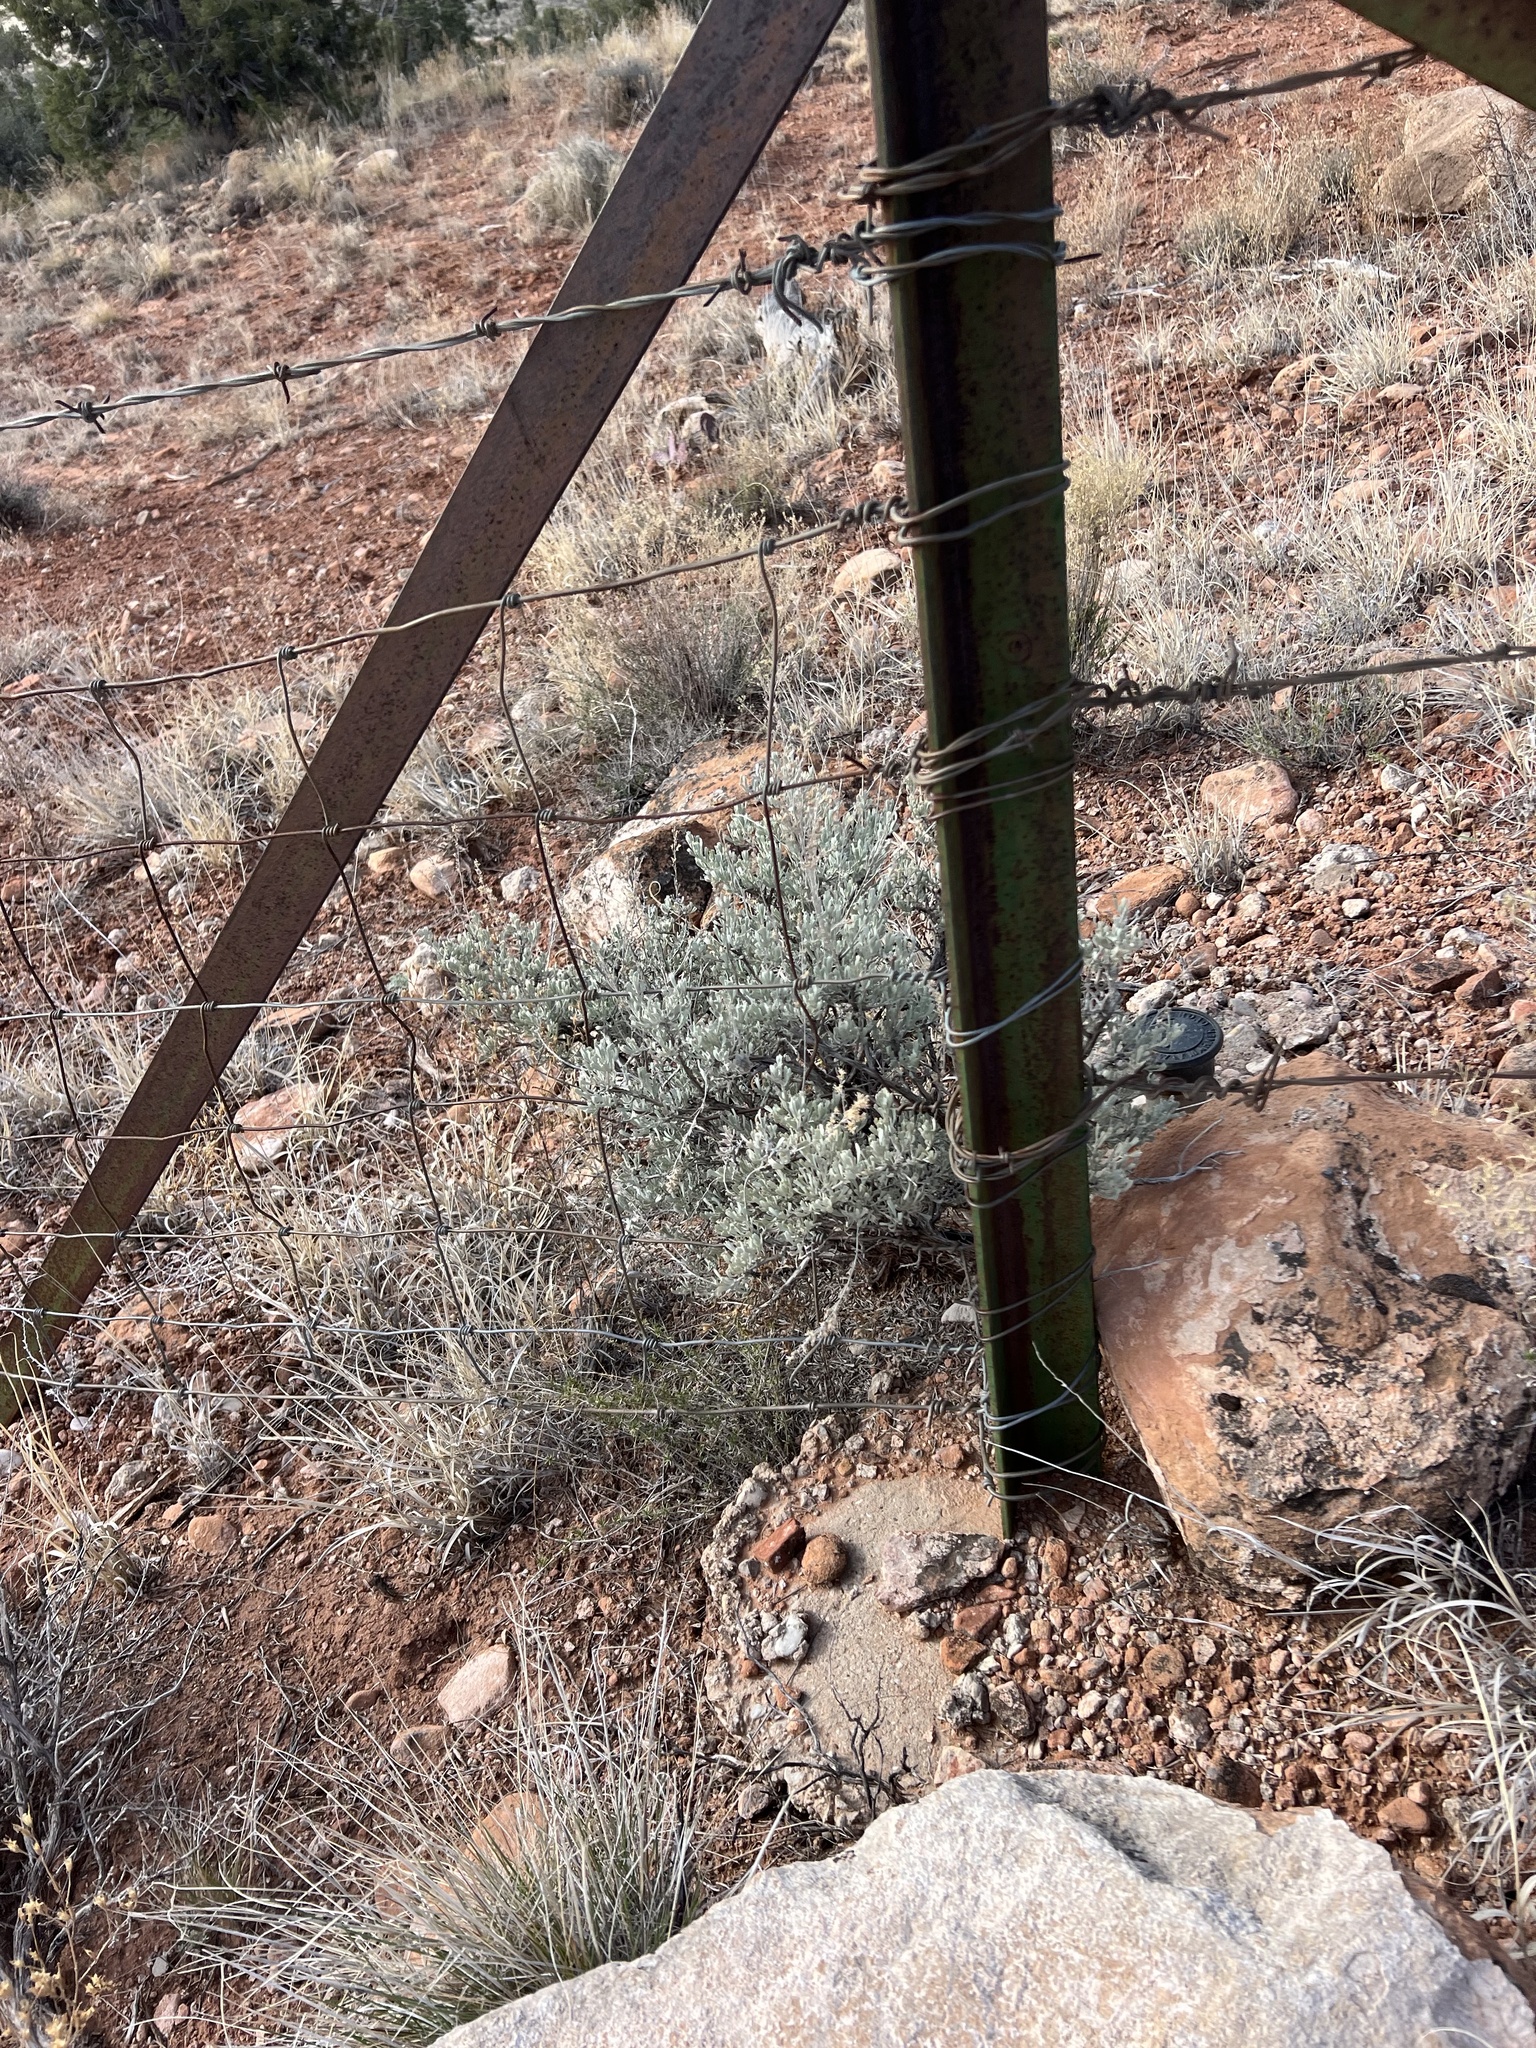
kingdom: Plantae
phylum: Tracheophyta
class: Magnoliopsida
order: Asterales
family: Asteraceae
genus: Artemisia
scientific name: Artemisia tridentata
